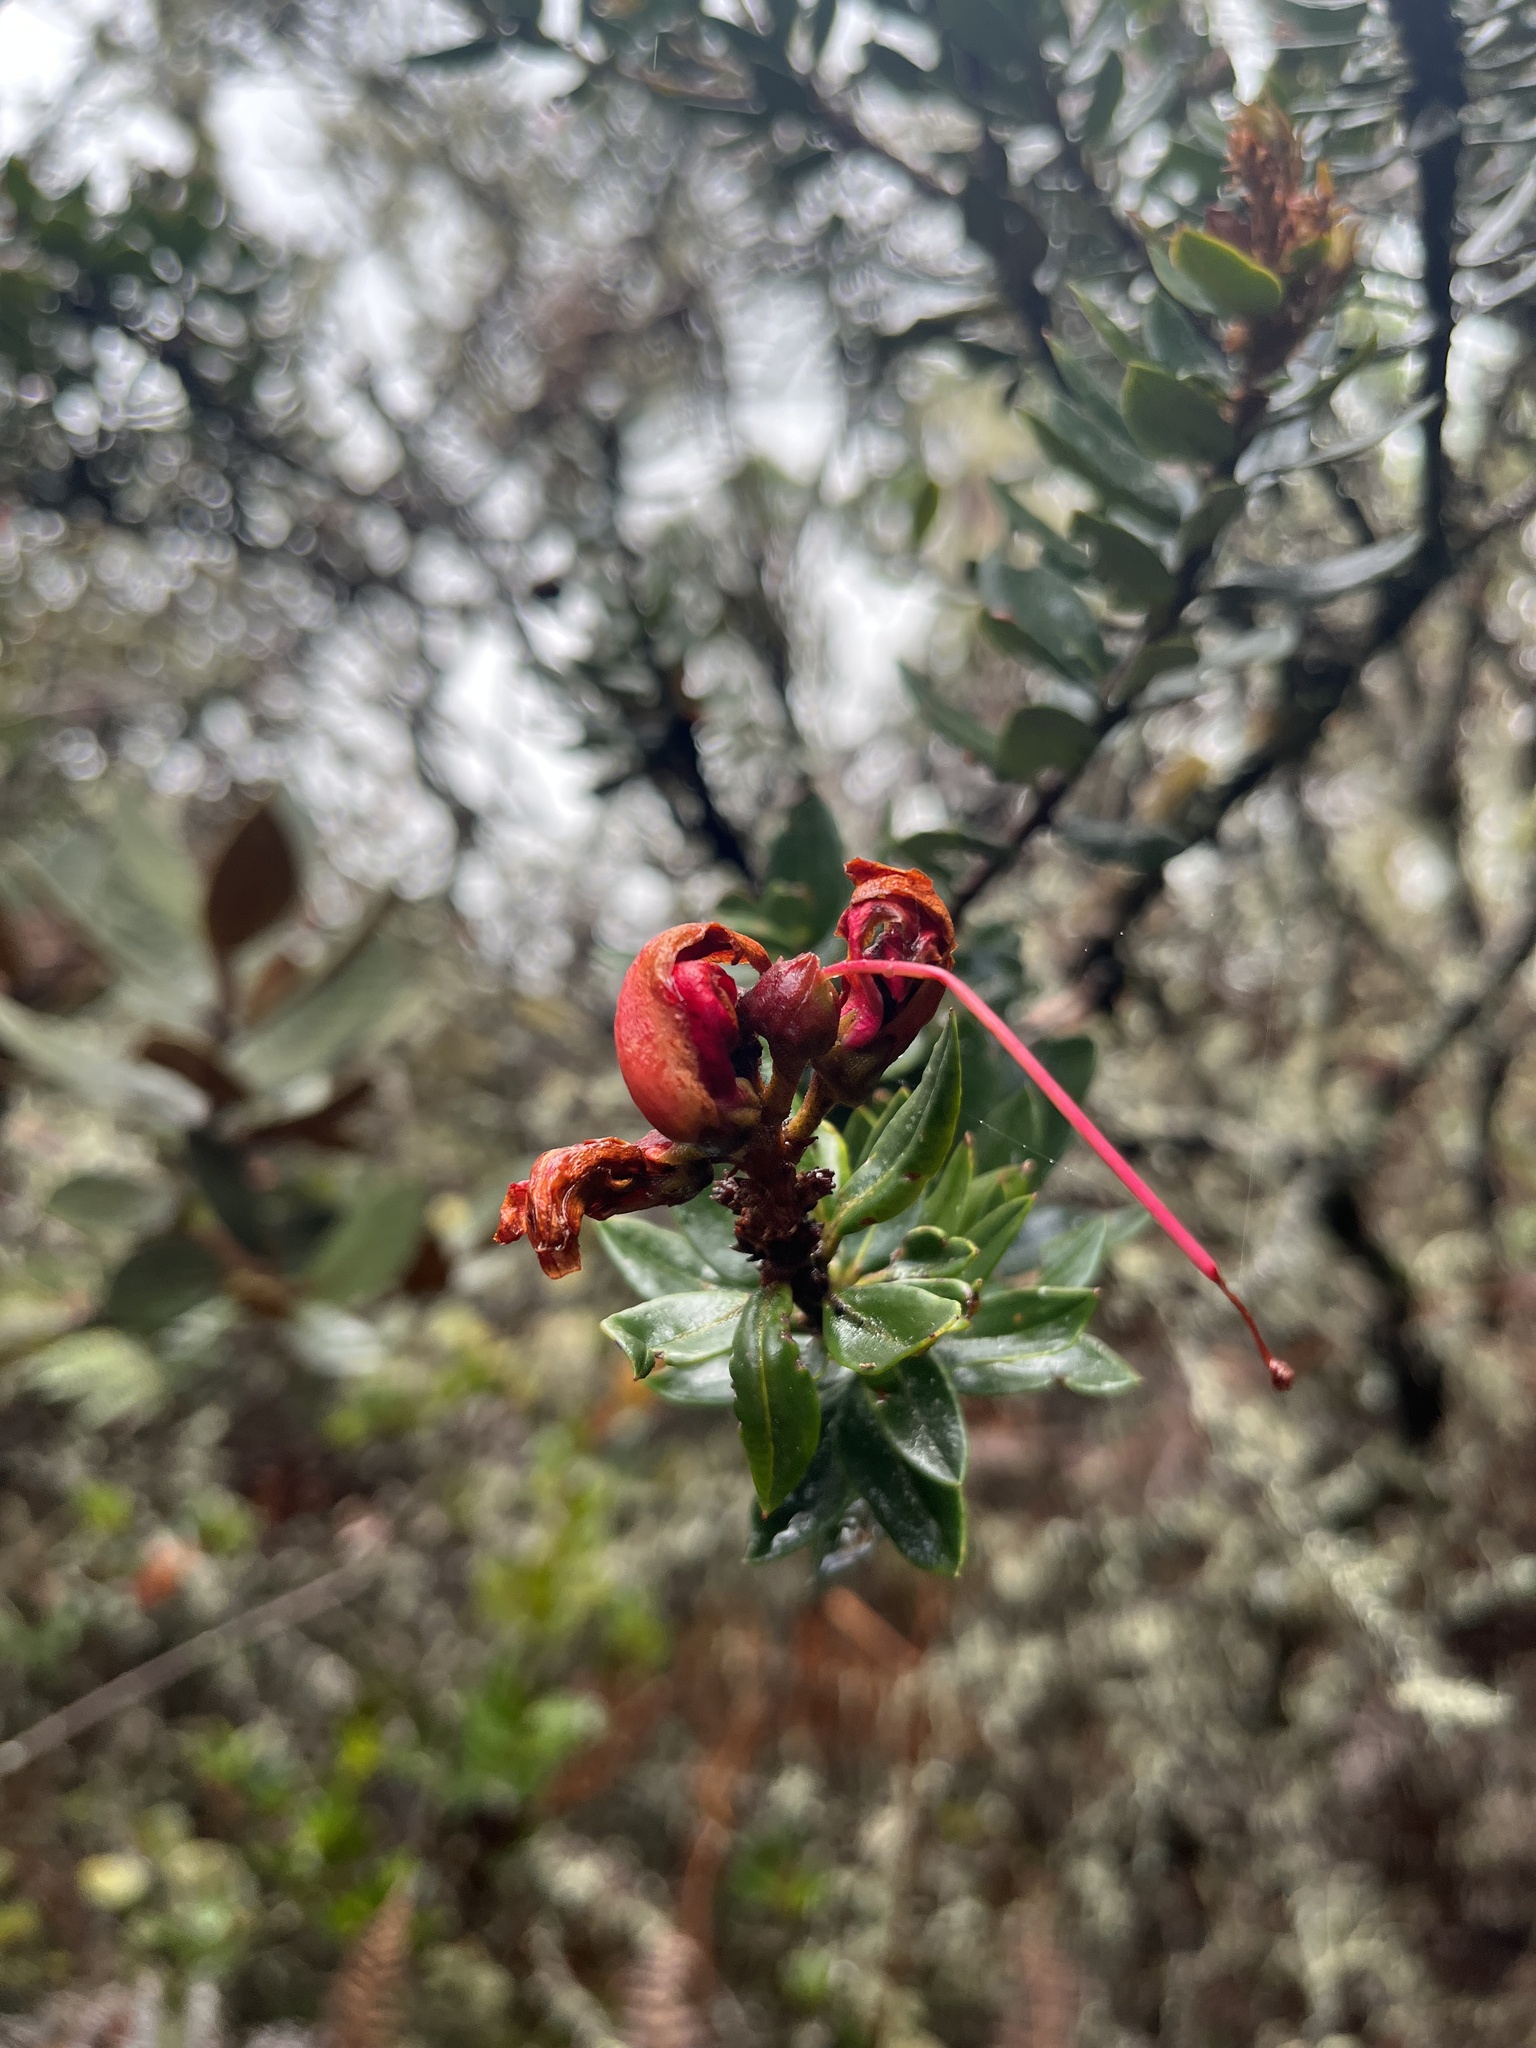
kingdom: Plantae
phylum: Tracheophyta
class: Magnoliopsida
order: Ericales
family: Ericaceae
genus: Bejaria
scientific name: Bejaria resinosa
